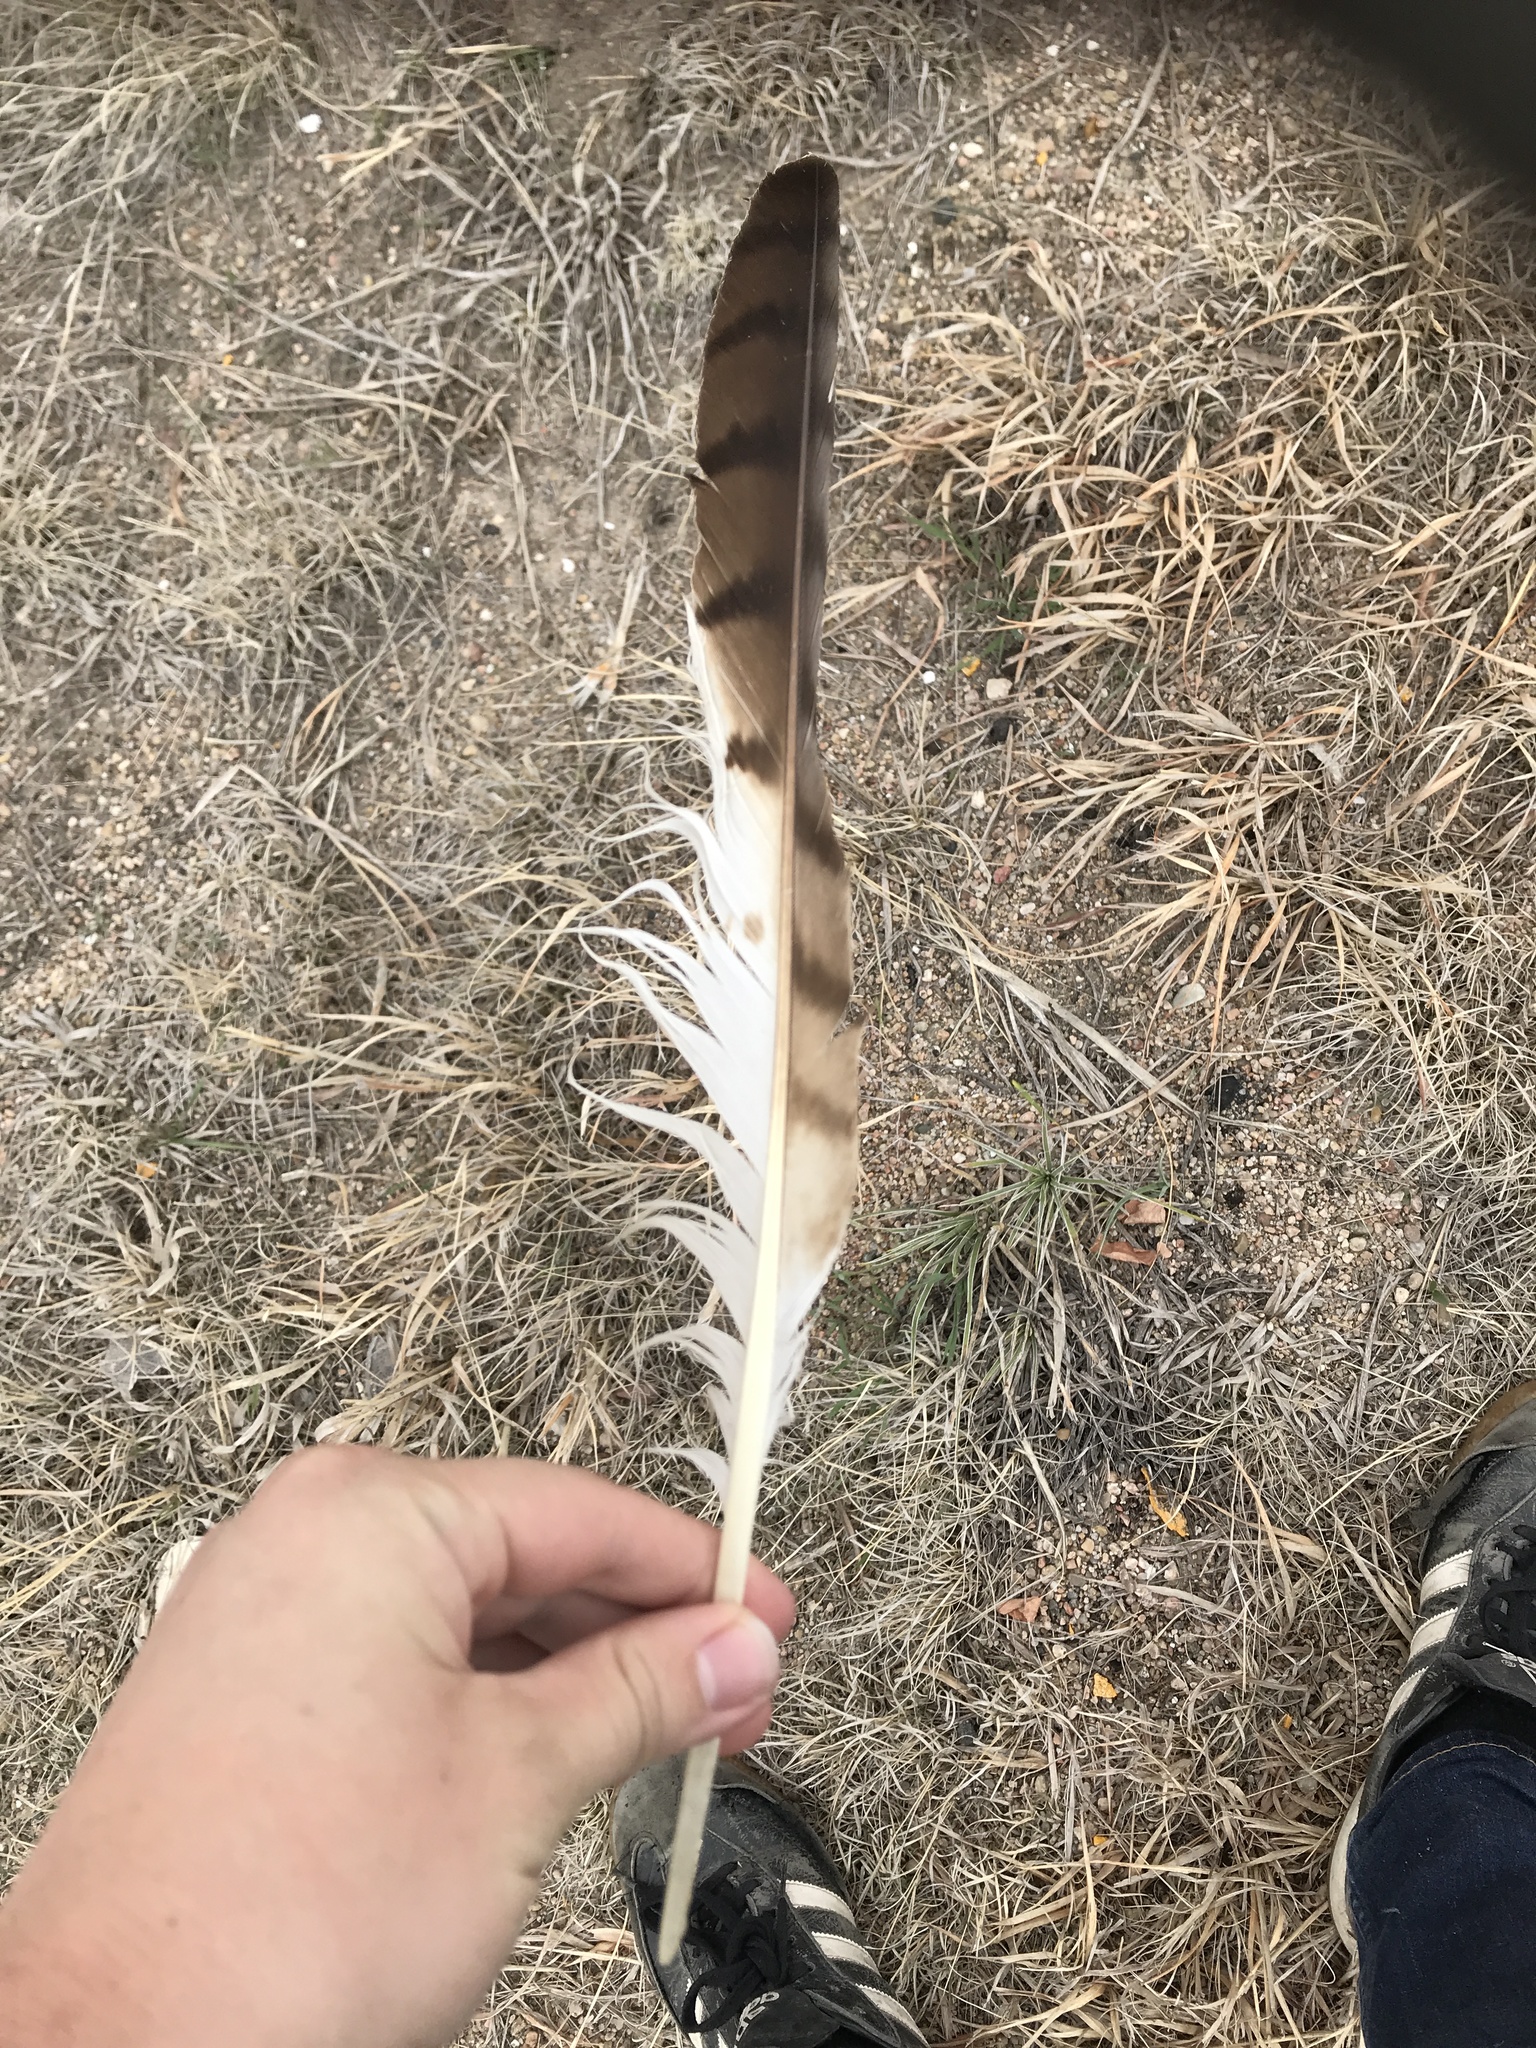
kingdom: Animalia
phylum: Chordata
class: Aves
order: Accipitriformes
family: Accipitridae
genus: Buteo
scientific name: Buteo jamaicensis
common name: Red-tailed hawk
